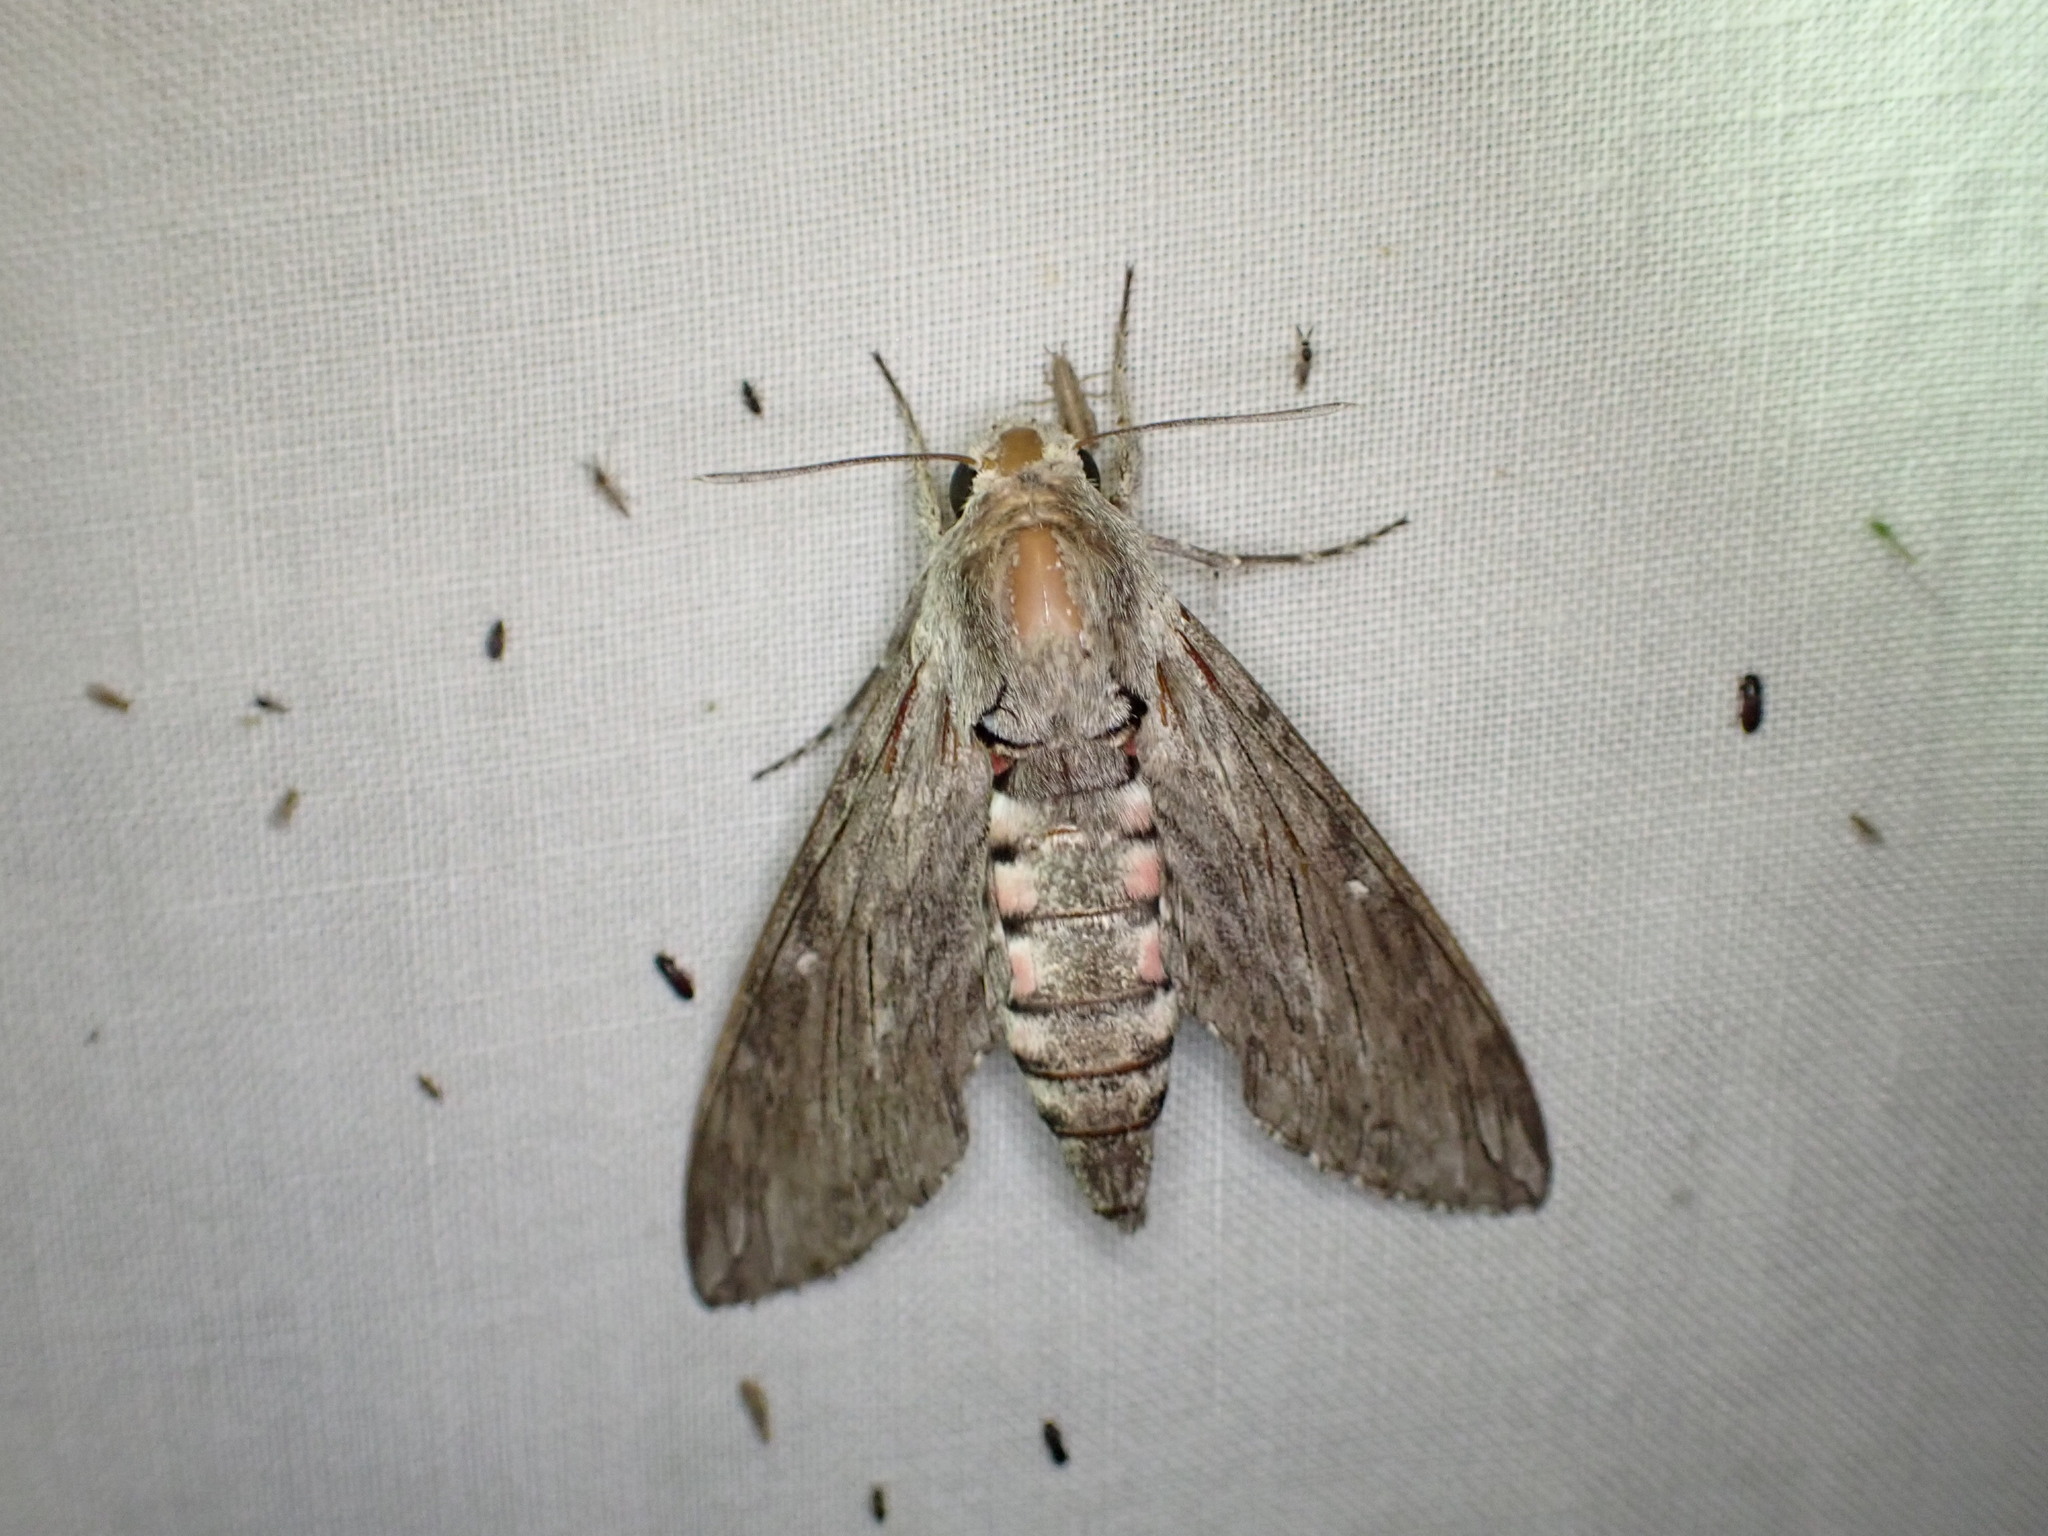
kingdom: Animalia
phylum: Arthropoda
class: Insecta
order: Lepidoptera
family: Sphingidae
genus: Agrius
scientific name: Agrius convolvuli
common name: Convolvulus hawkmoth
